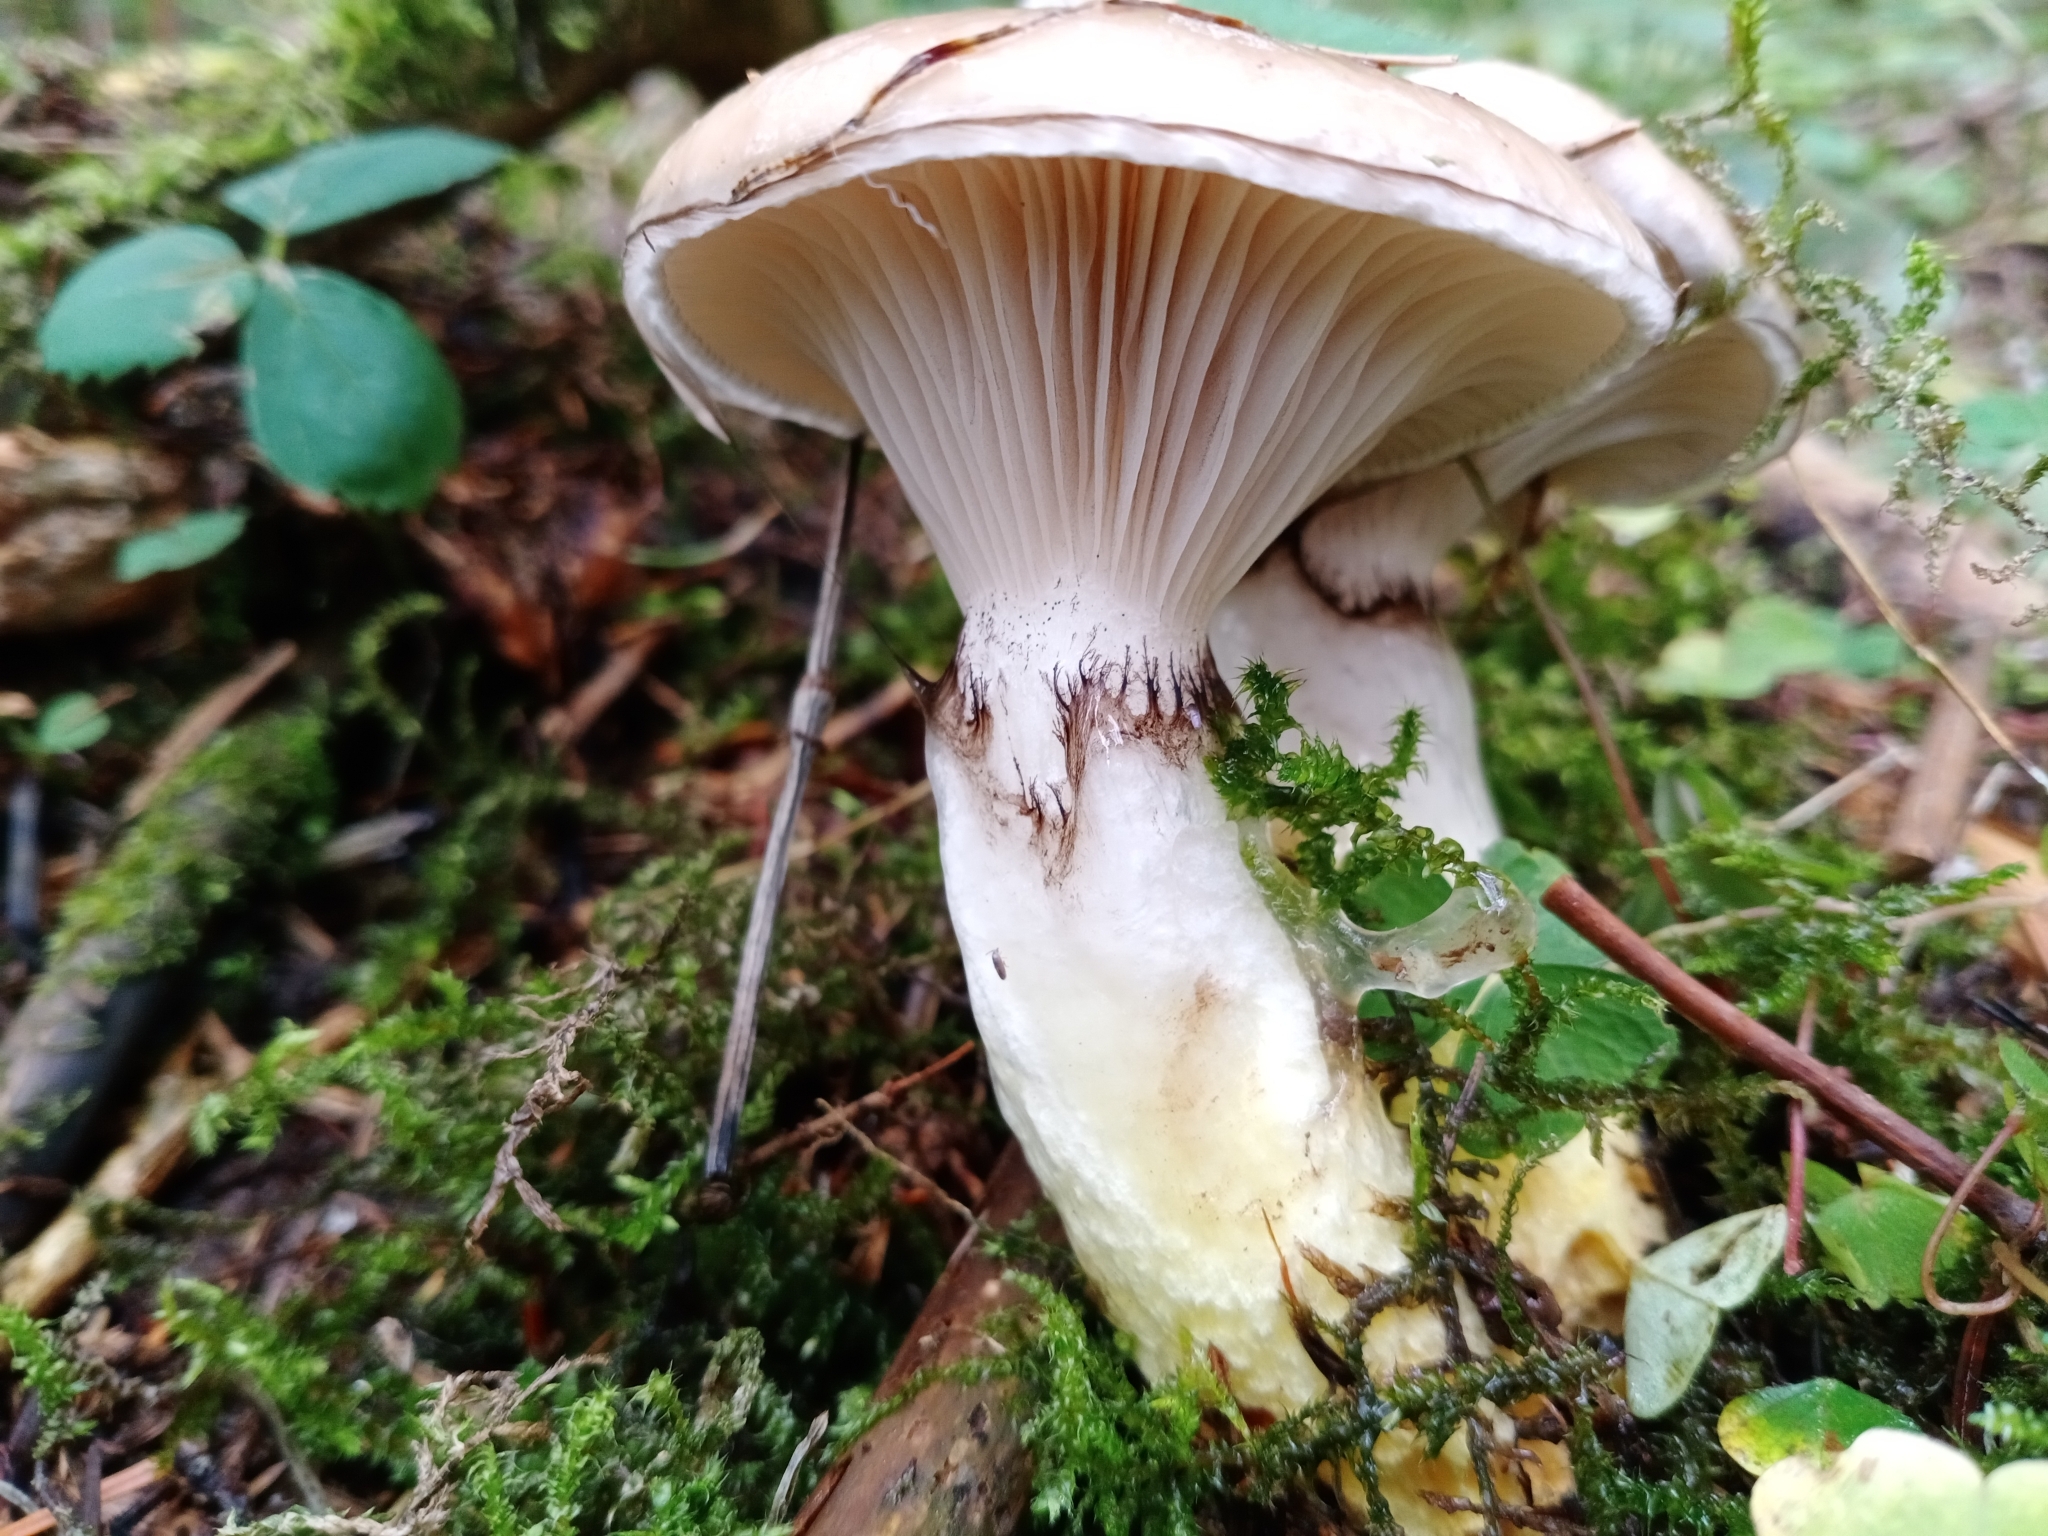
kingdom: Fungi
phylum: Basidiomycota
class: Agaricomycetes
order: Boletales
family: Gomphidiaceae
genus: Gomphidius
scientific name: Gomphidius glutinosus
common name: Slimy spike
